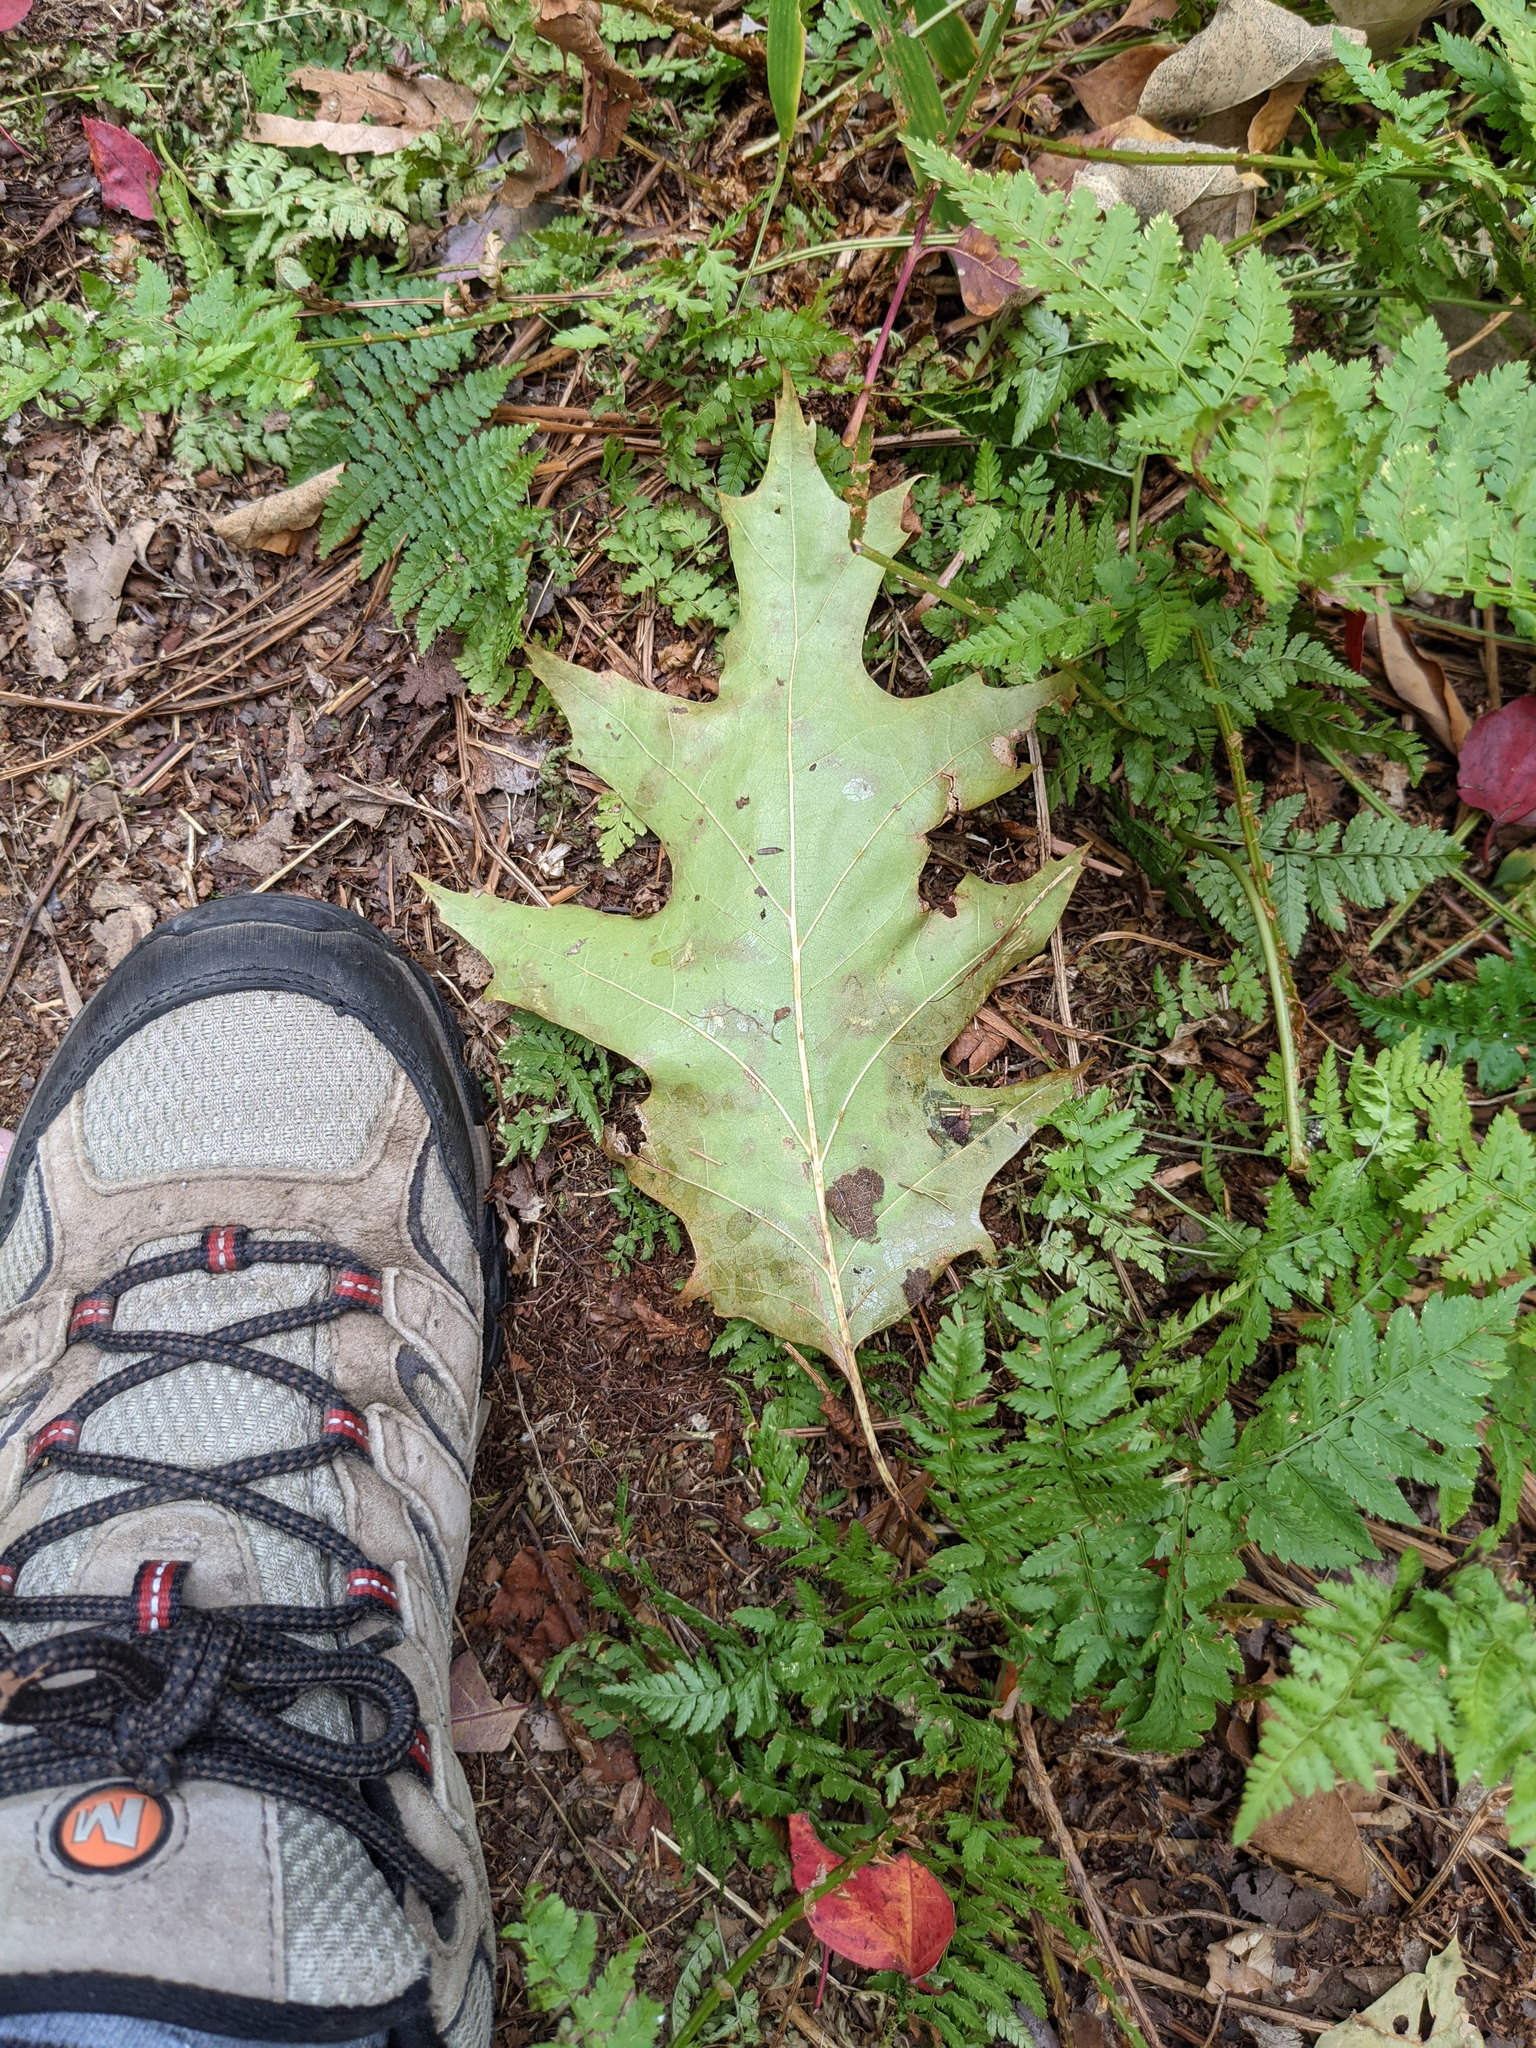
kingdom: Plantae
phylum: Tracheophyta
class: Magnoliopsida
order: Fagales
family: Fagaceae
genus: Quercus
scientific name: Quercus rubra
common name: Red oak
